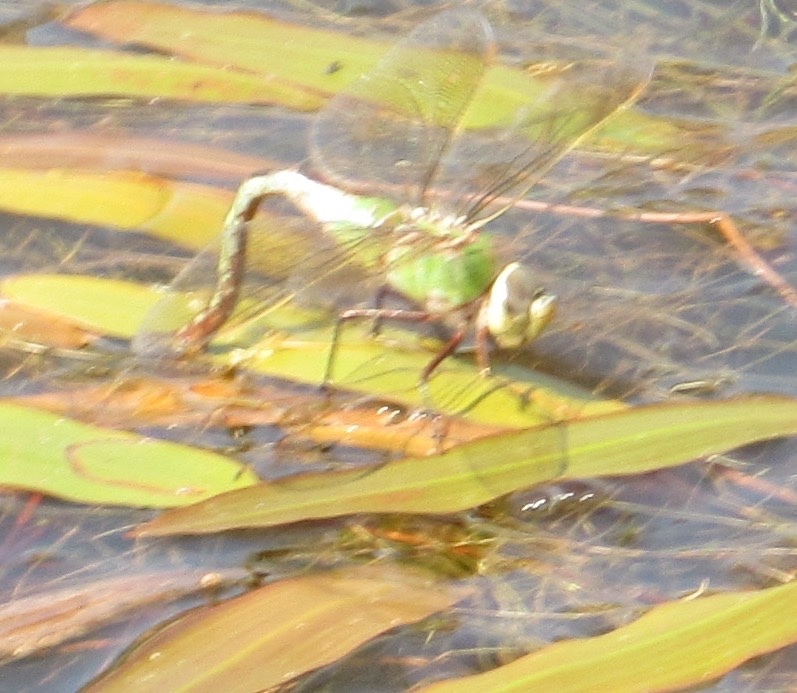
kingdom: Animalia
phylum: Arthropoda
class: Insecta
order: Odonata
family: Aeshnidae
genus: Anax
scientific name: Anax junius
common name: Common green darner
